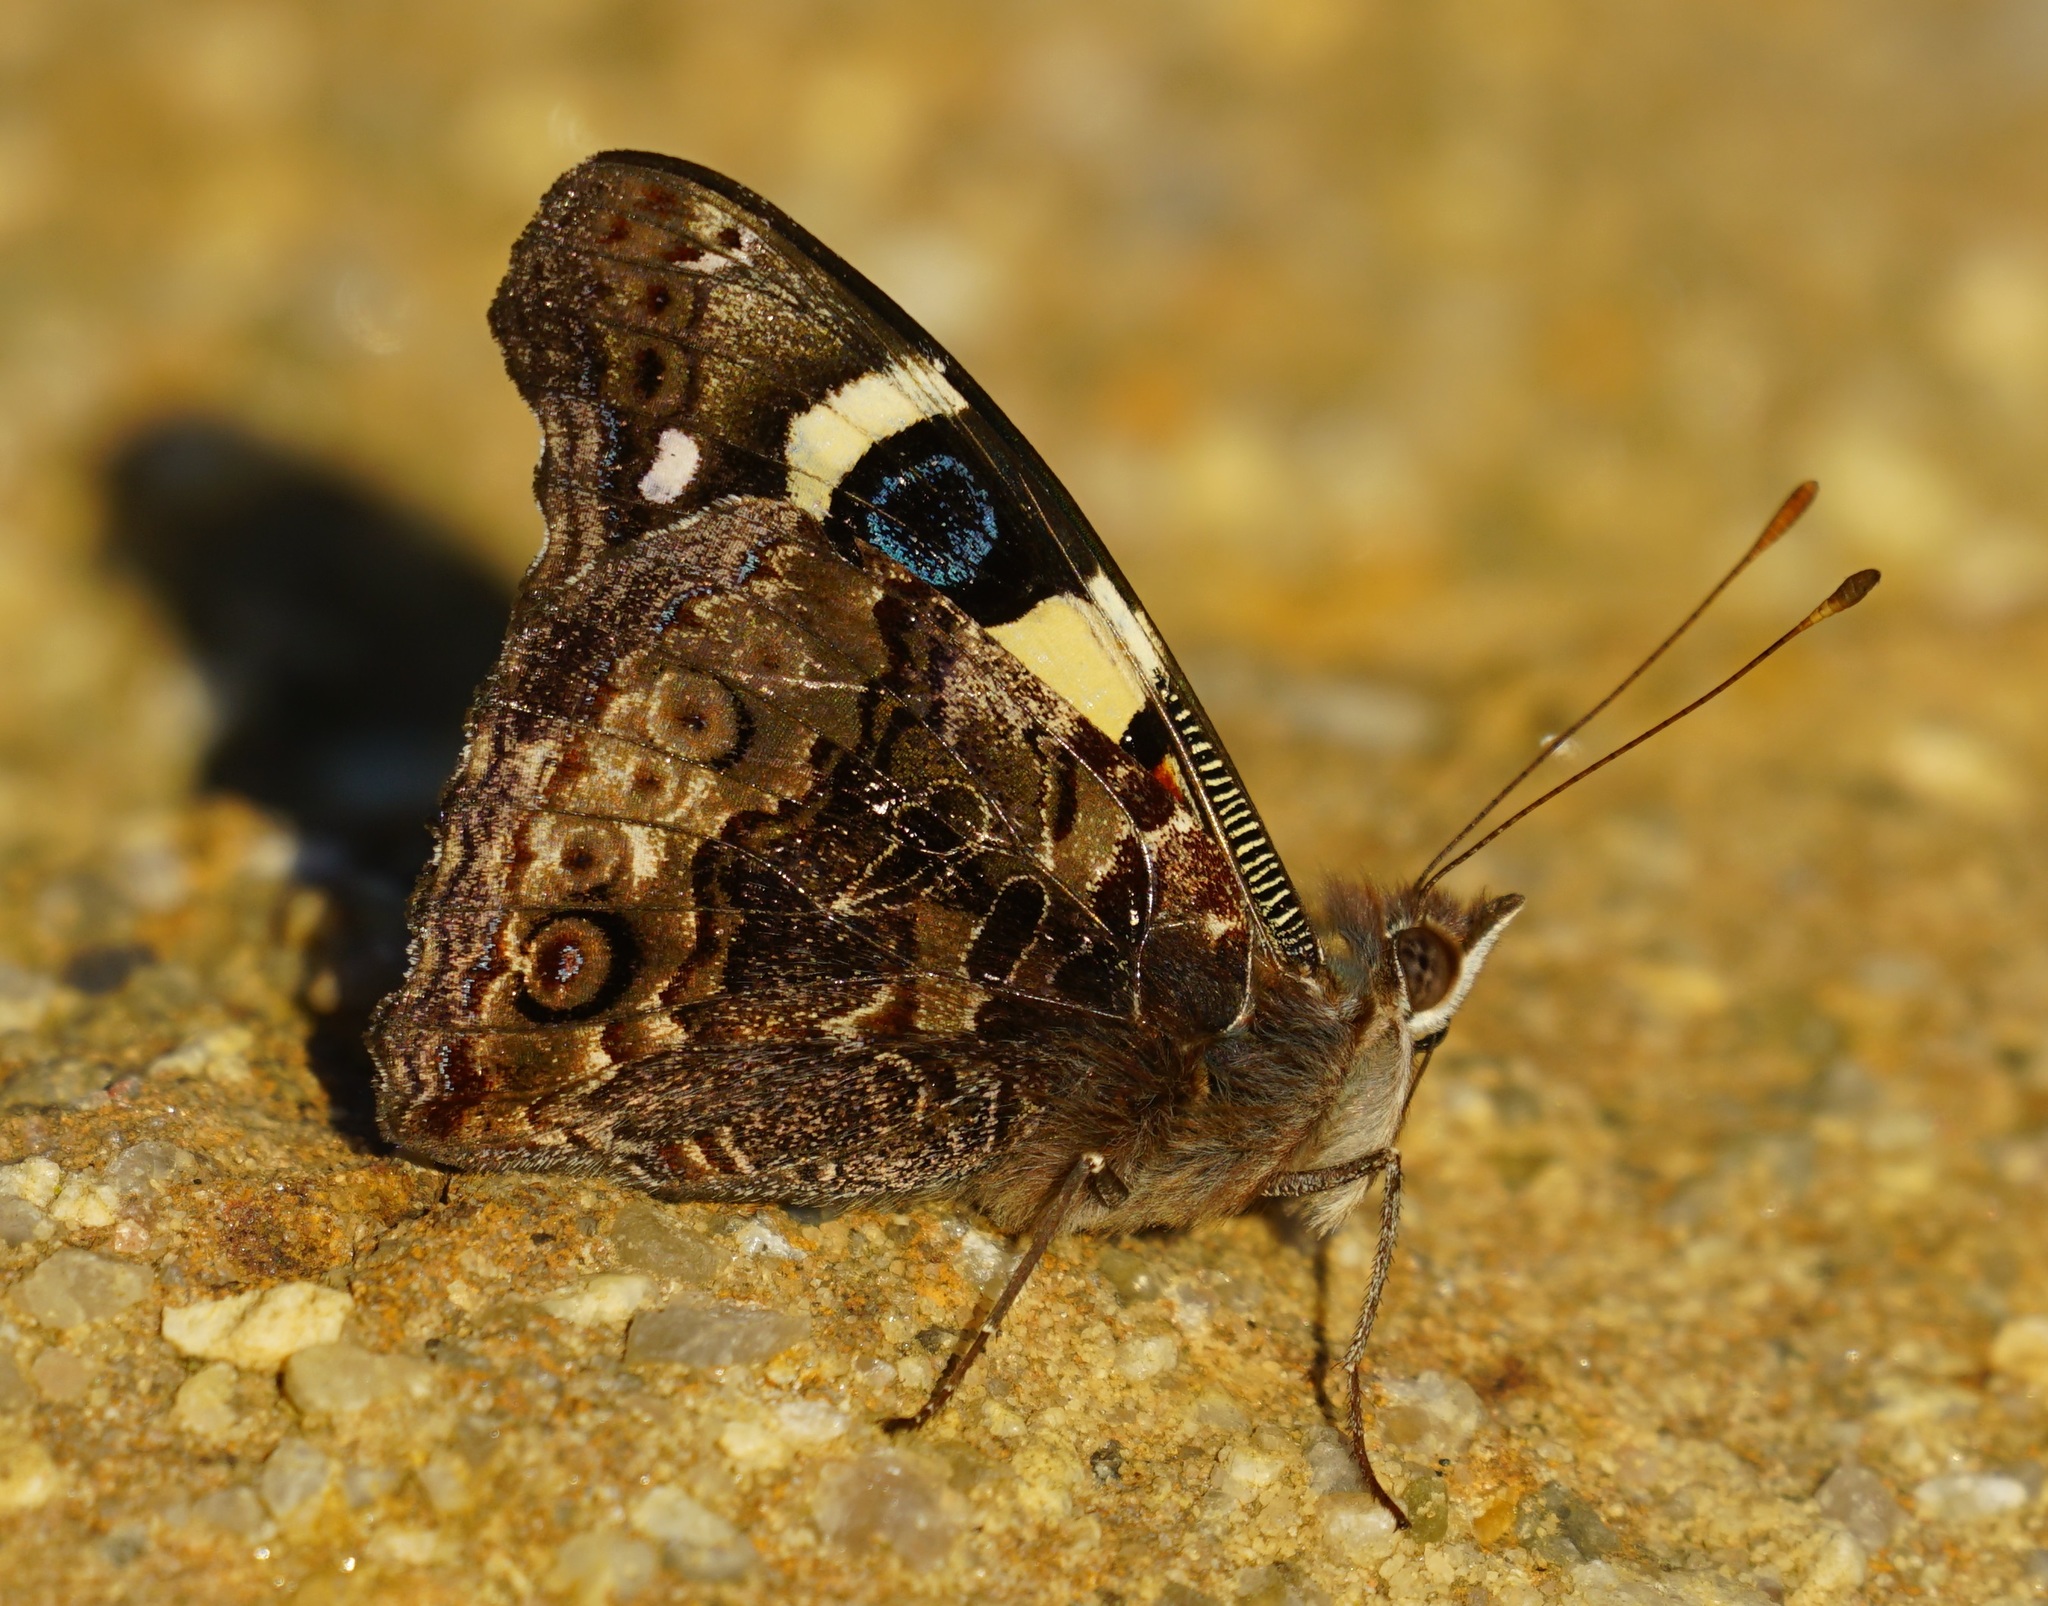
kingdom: Animalia
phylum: Arthropoda
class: Insecta
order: Lepidoptera
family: Nymphalidae
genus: Vanessa
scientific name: Vanessa itea
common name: Yellow admiral
